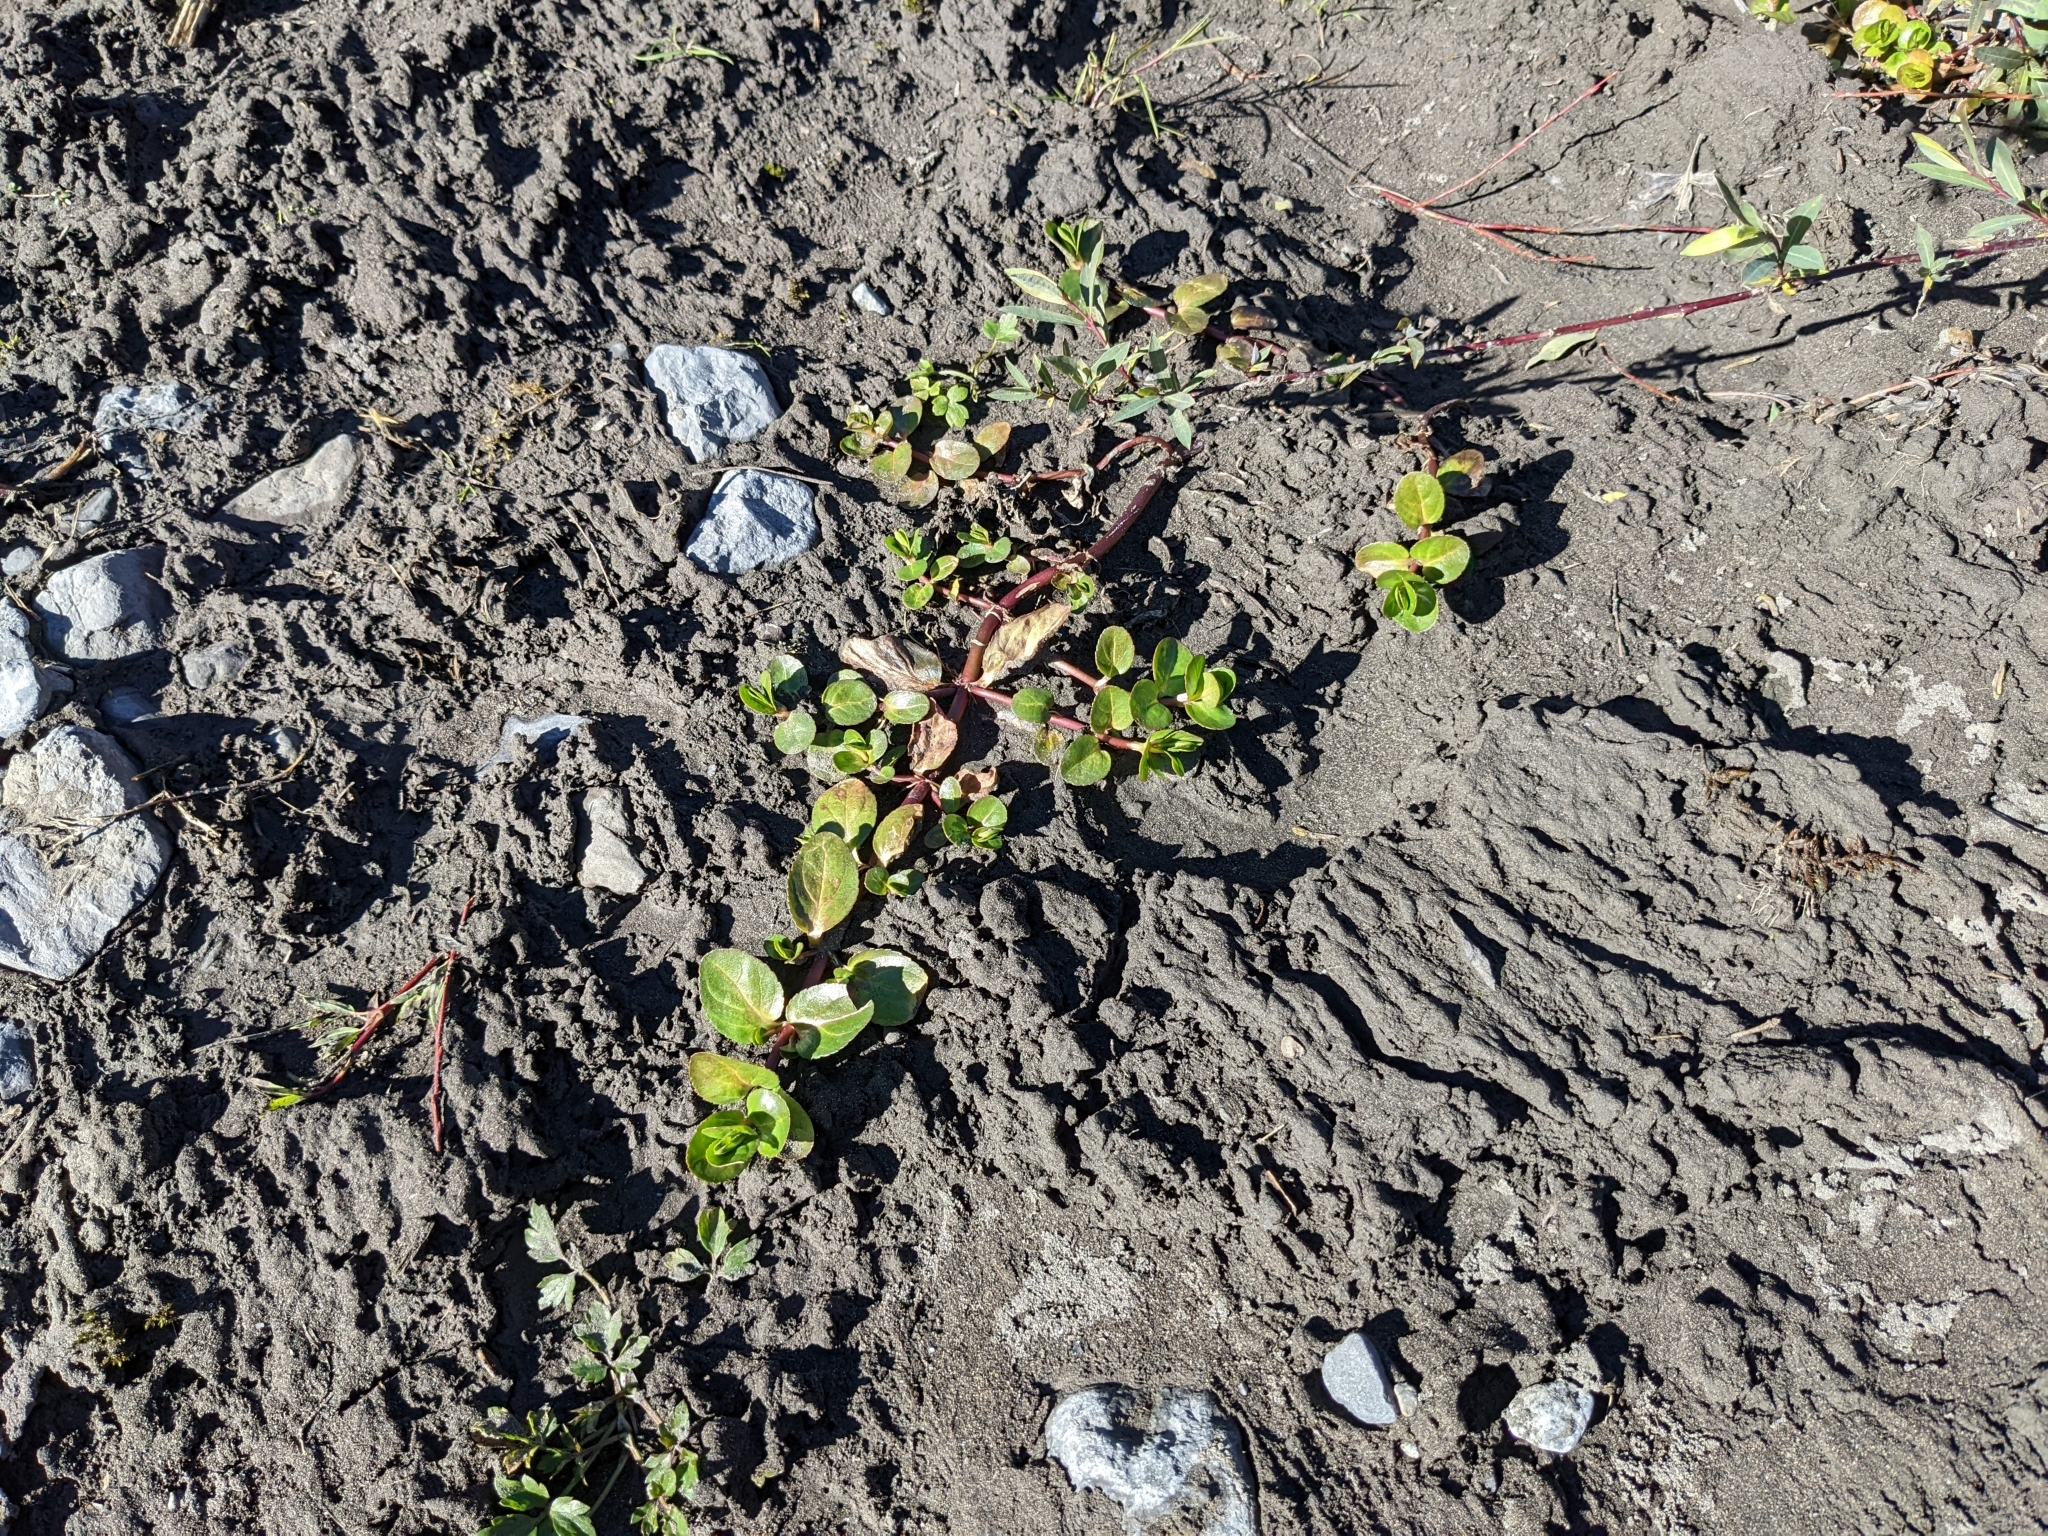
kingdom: Plantae
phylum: Tracheophyta
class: Magnoliopsida
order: Lamiales
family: Plantaginaceae
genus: Veronica
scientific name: Veronica beccabunga
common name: Brooklime
